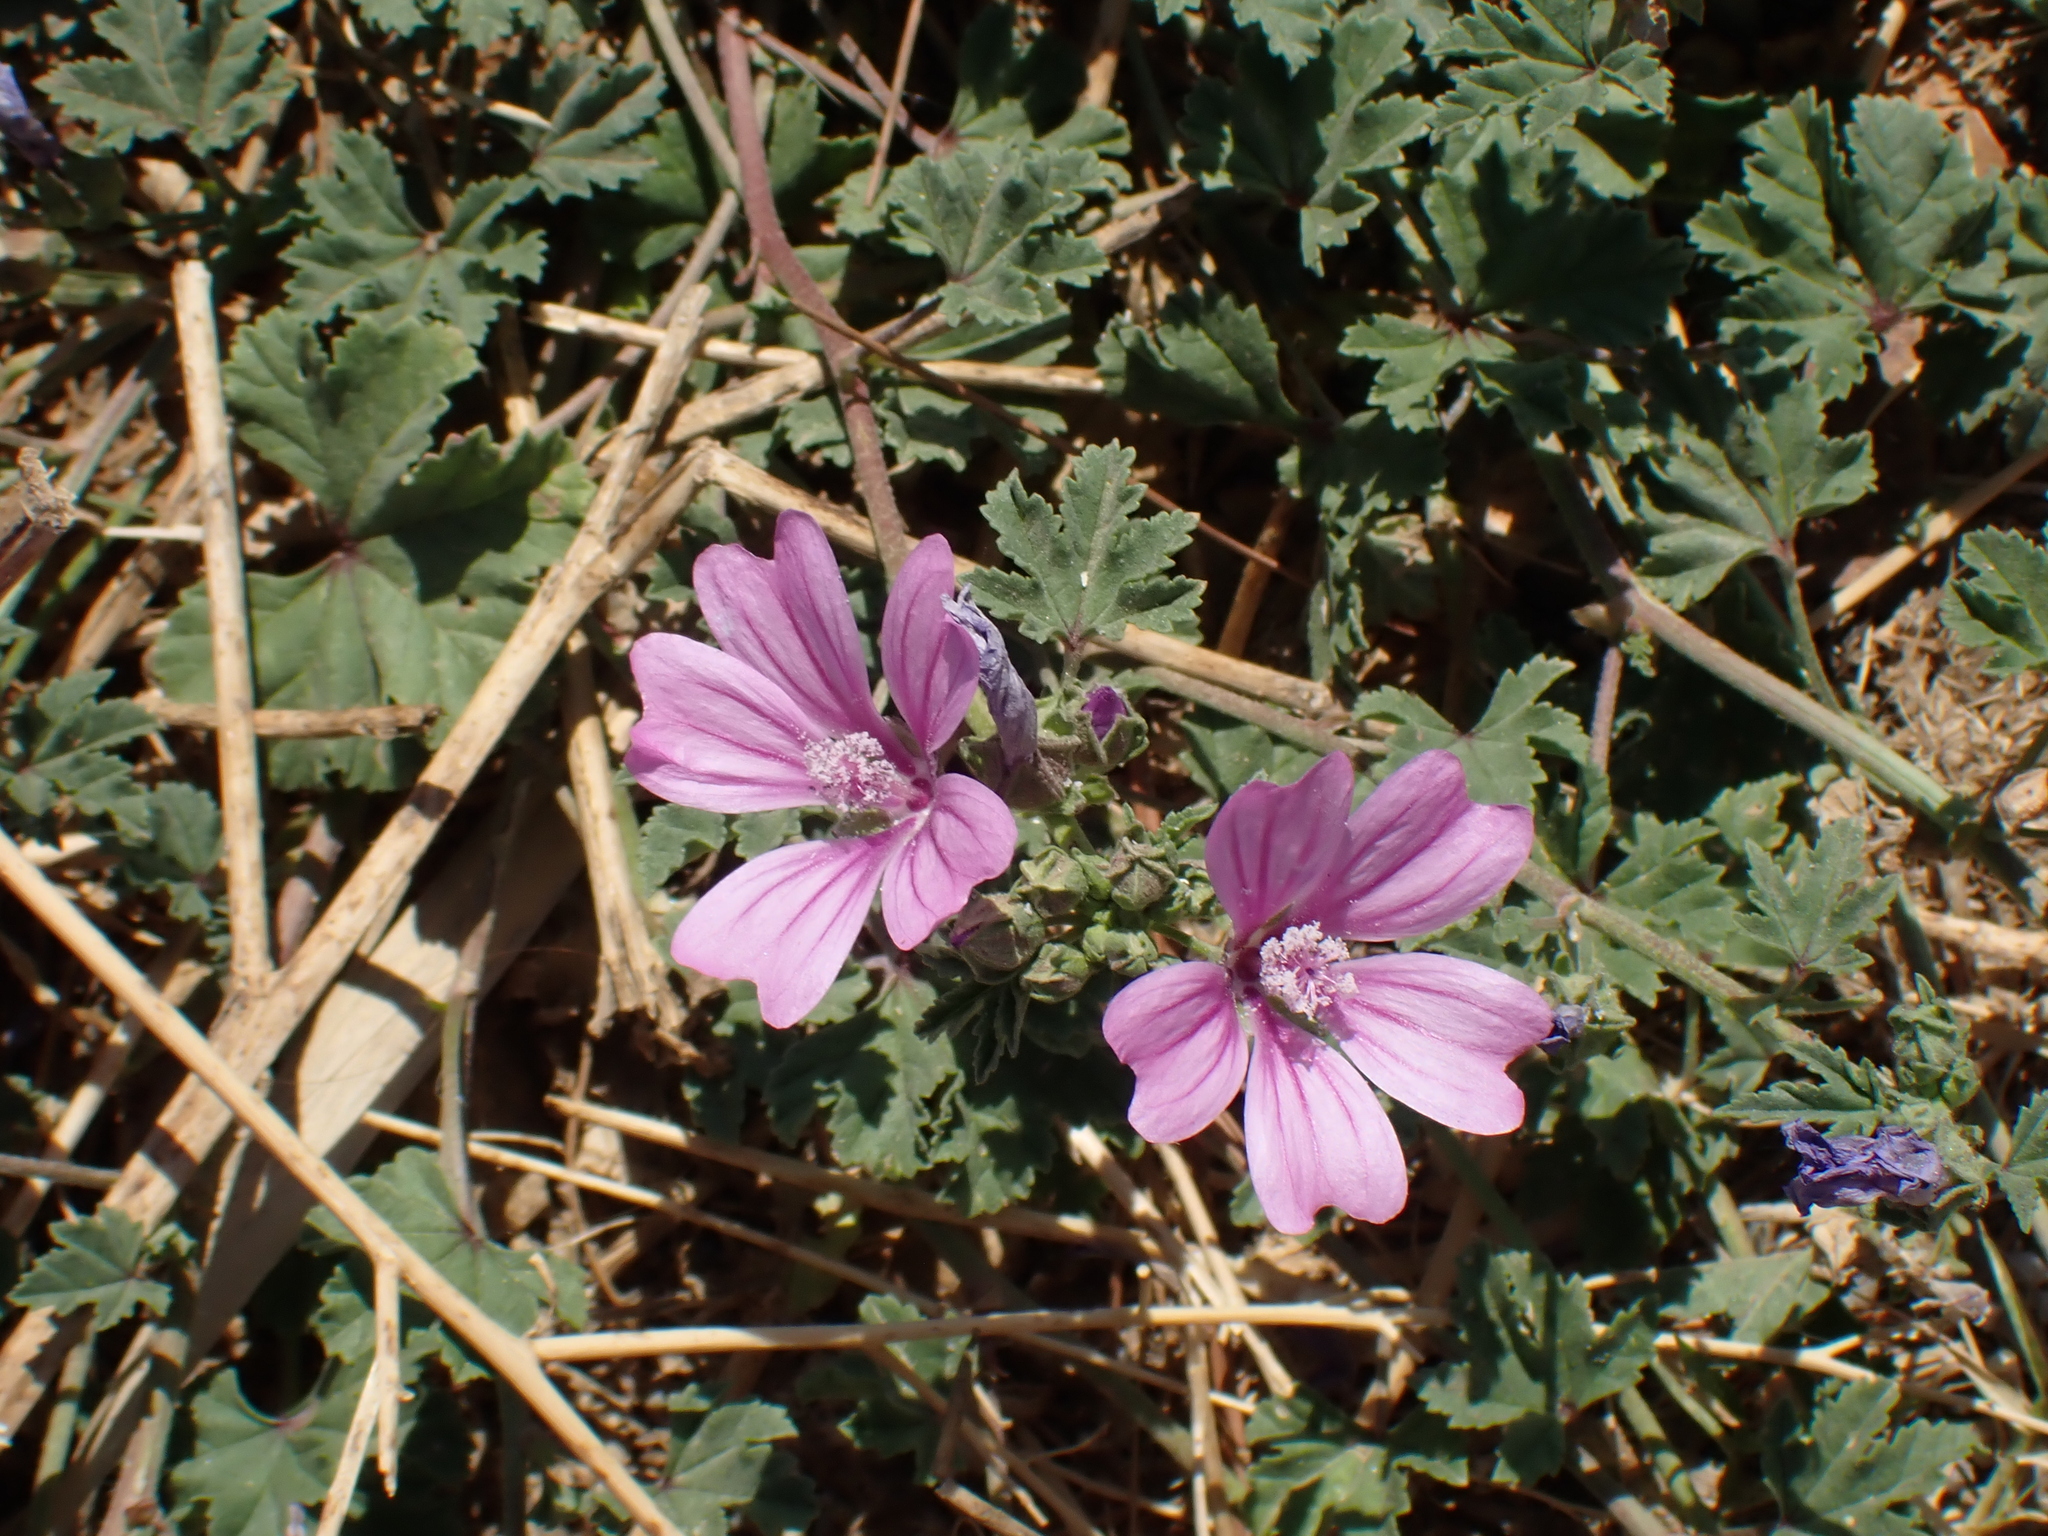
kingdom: Plantae
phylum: Tracheophyta
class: Magnoliopsida
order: Malvales
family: Malvaceae
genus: Malva
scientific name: Malva sylvestris
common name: Common mallow
